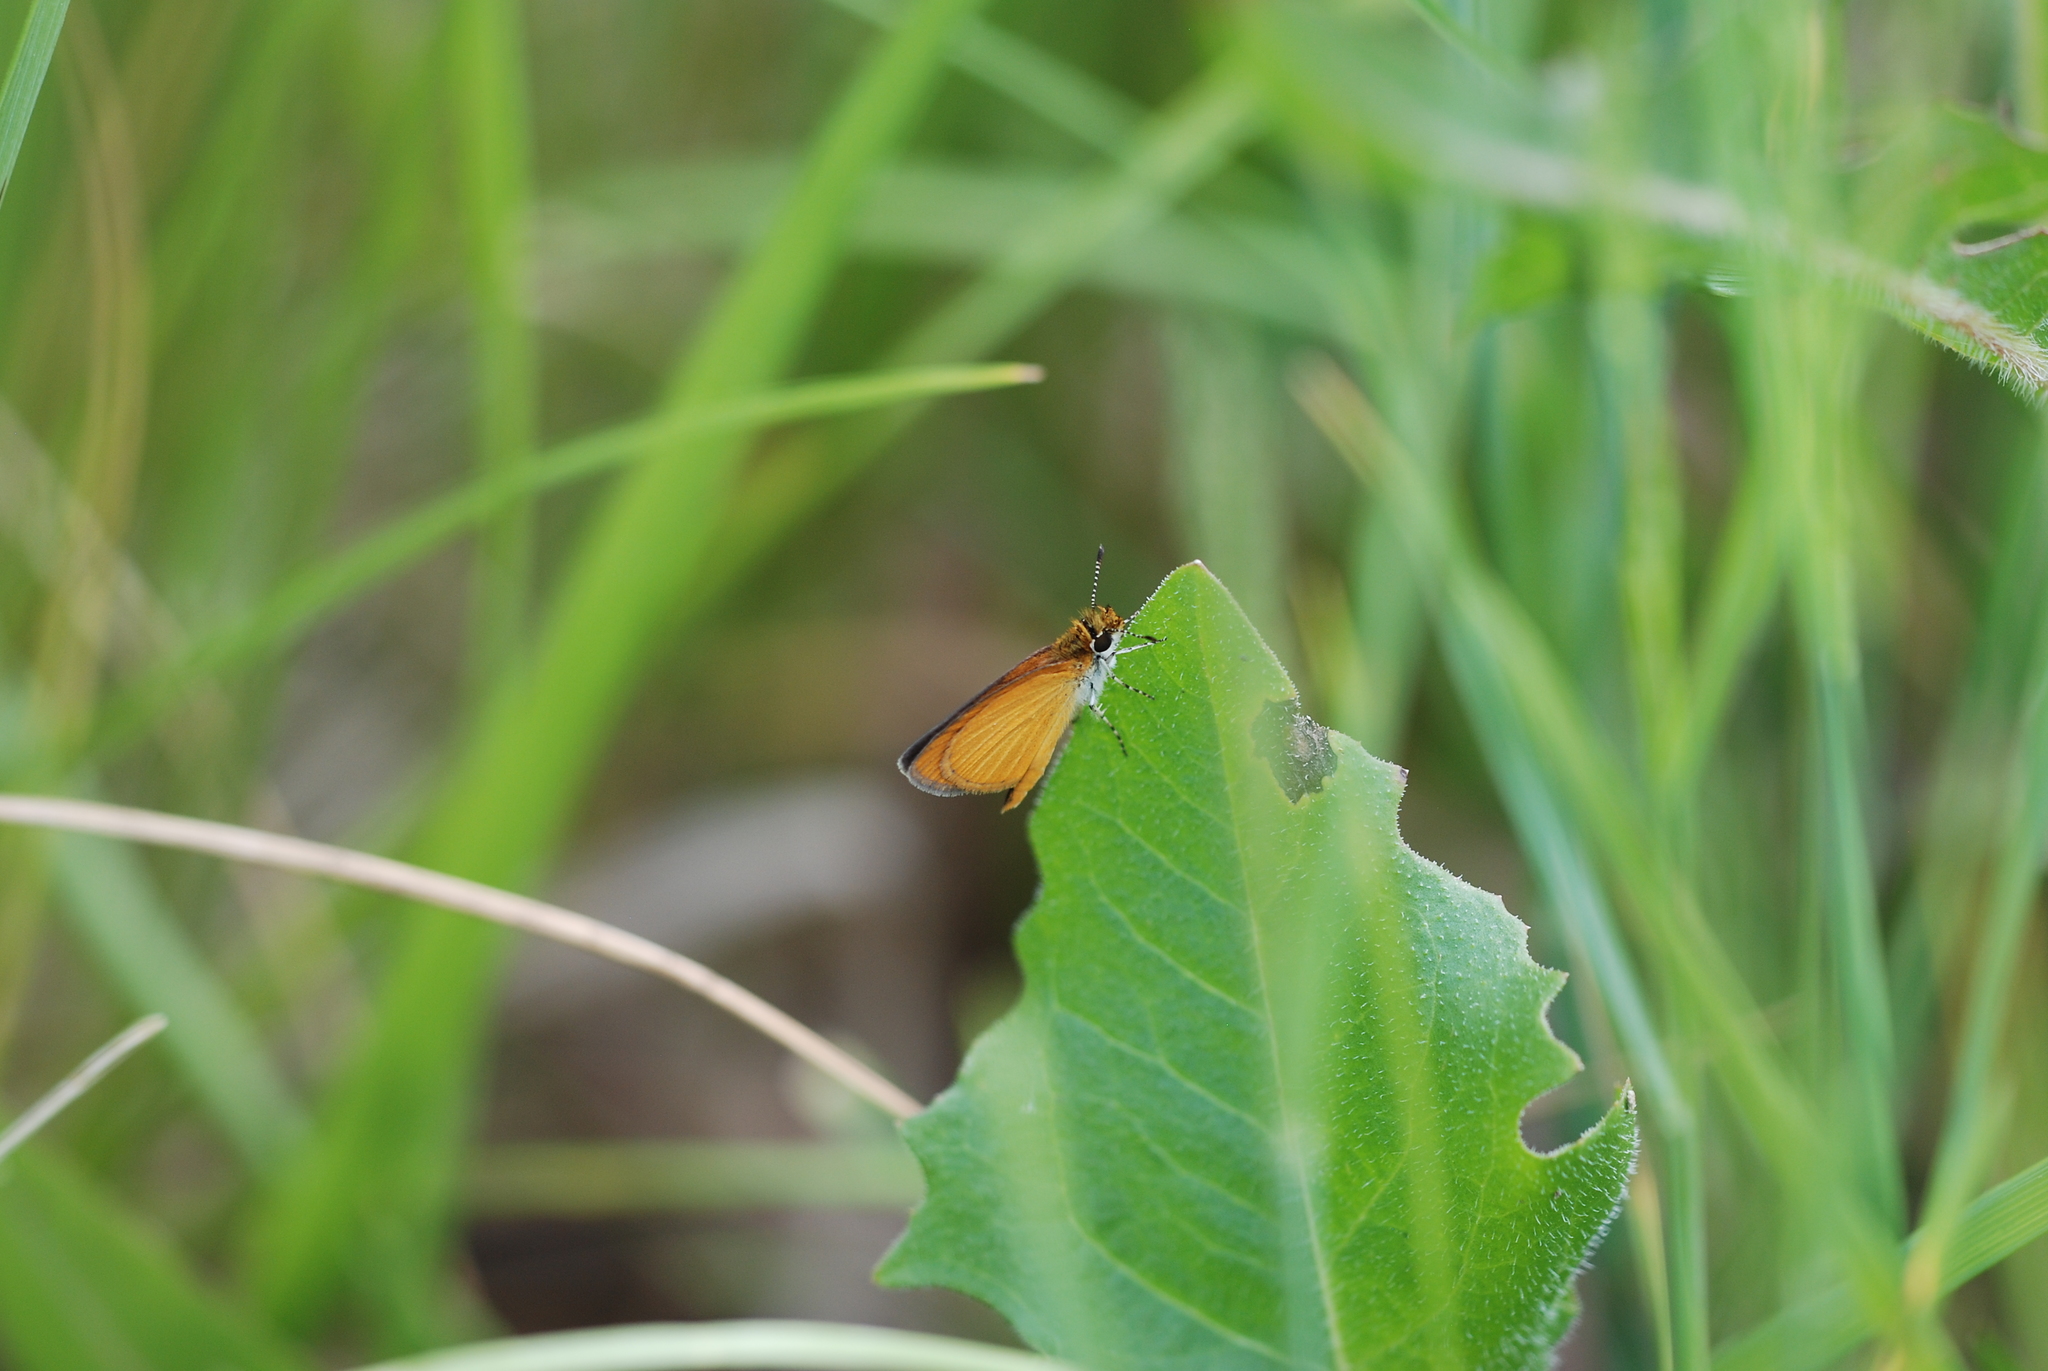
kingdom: Animalia
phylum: Arthropoda
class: Insecta
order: Lepidoptera
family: Hesperiidae
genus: Ancyloxypha
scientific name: Ancyloxypha numitor
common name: Least skipper
